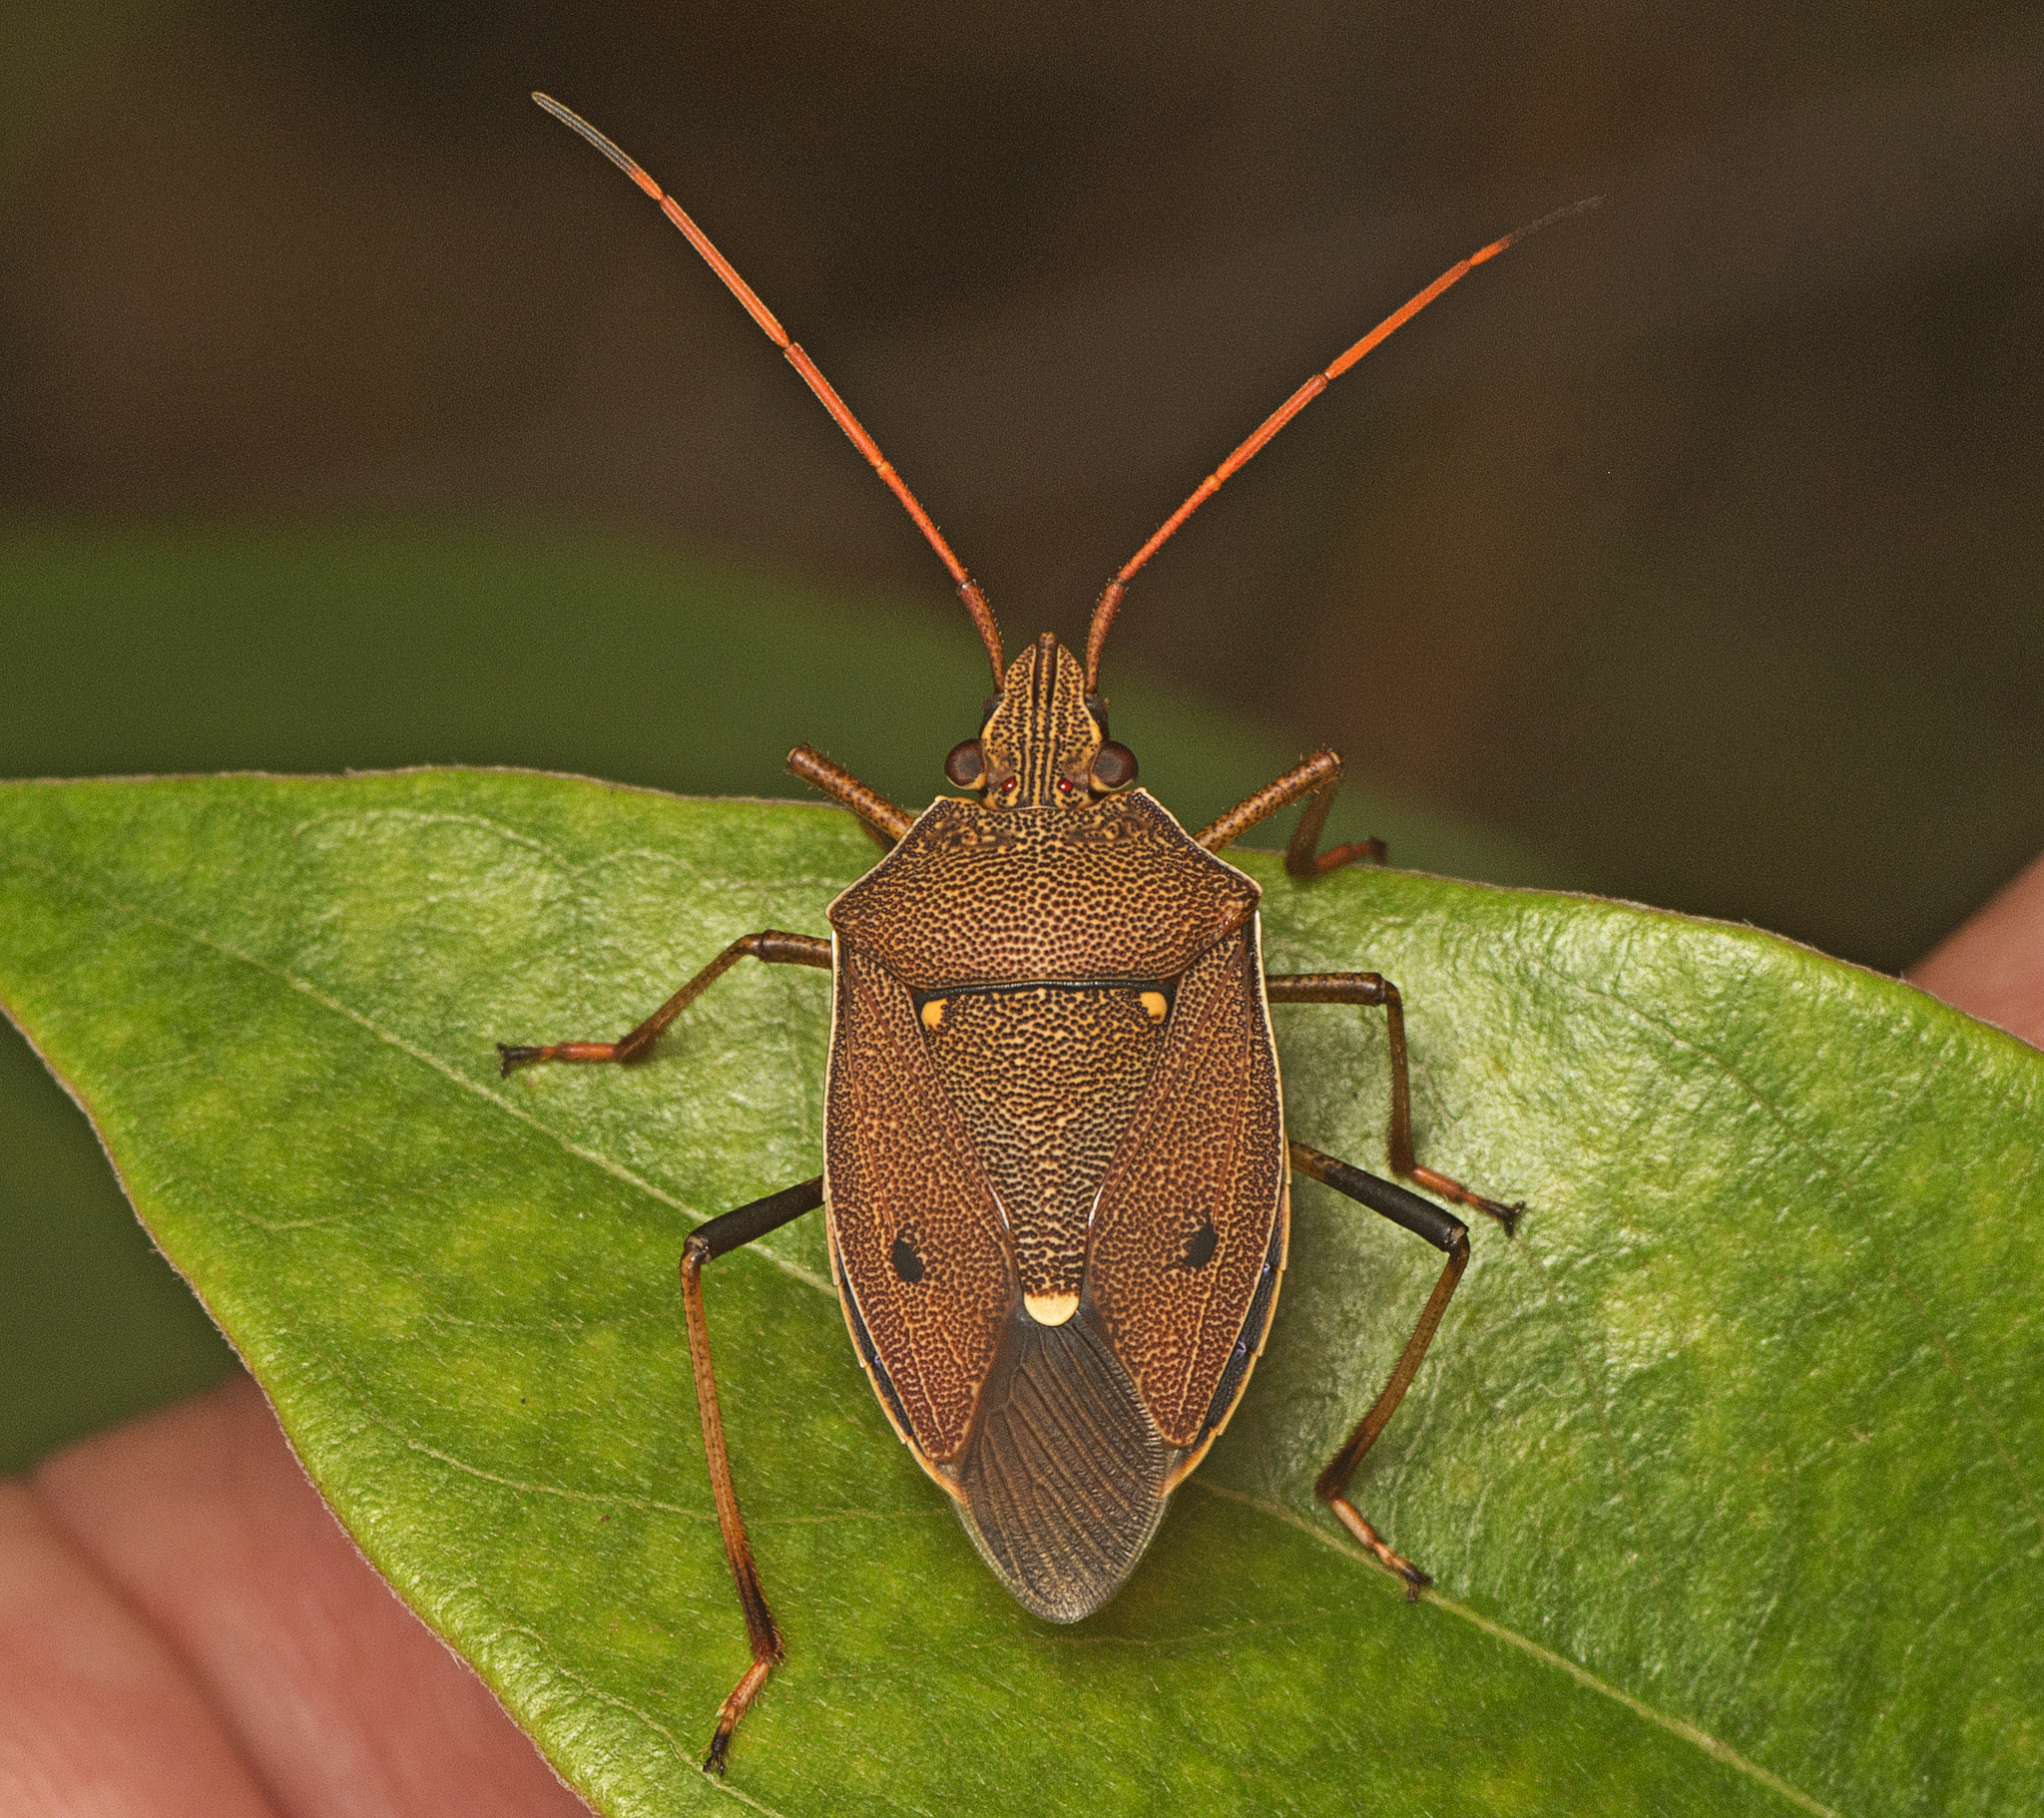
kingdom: Animalia
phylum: Arthropoda
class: Insecta
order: Hemiptera
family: Pentatomidae
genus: Poecilometis
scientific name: Poecilometis
